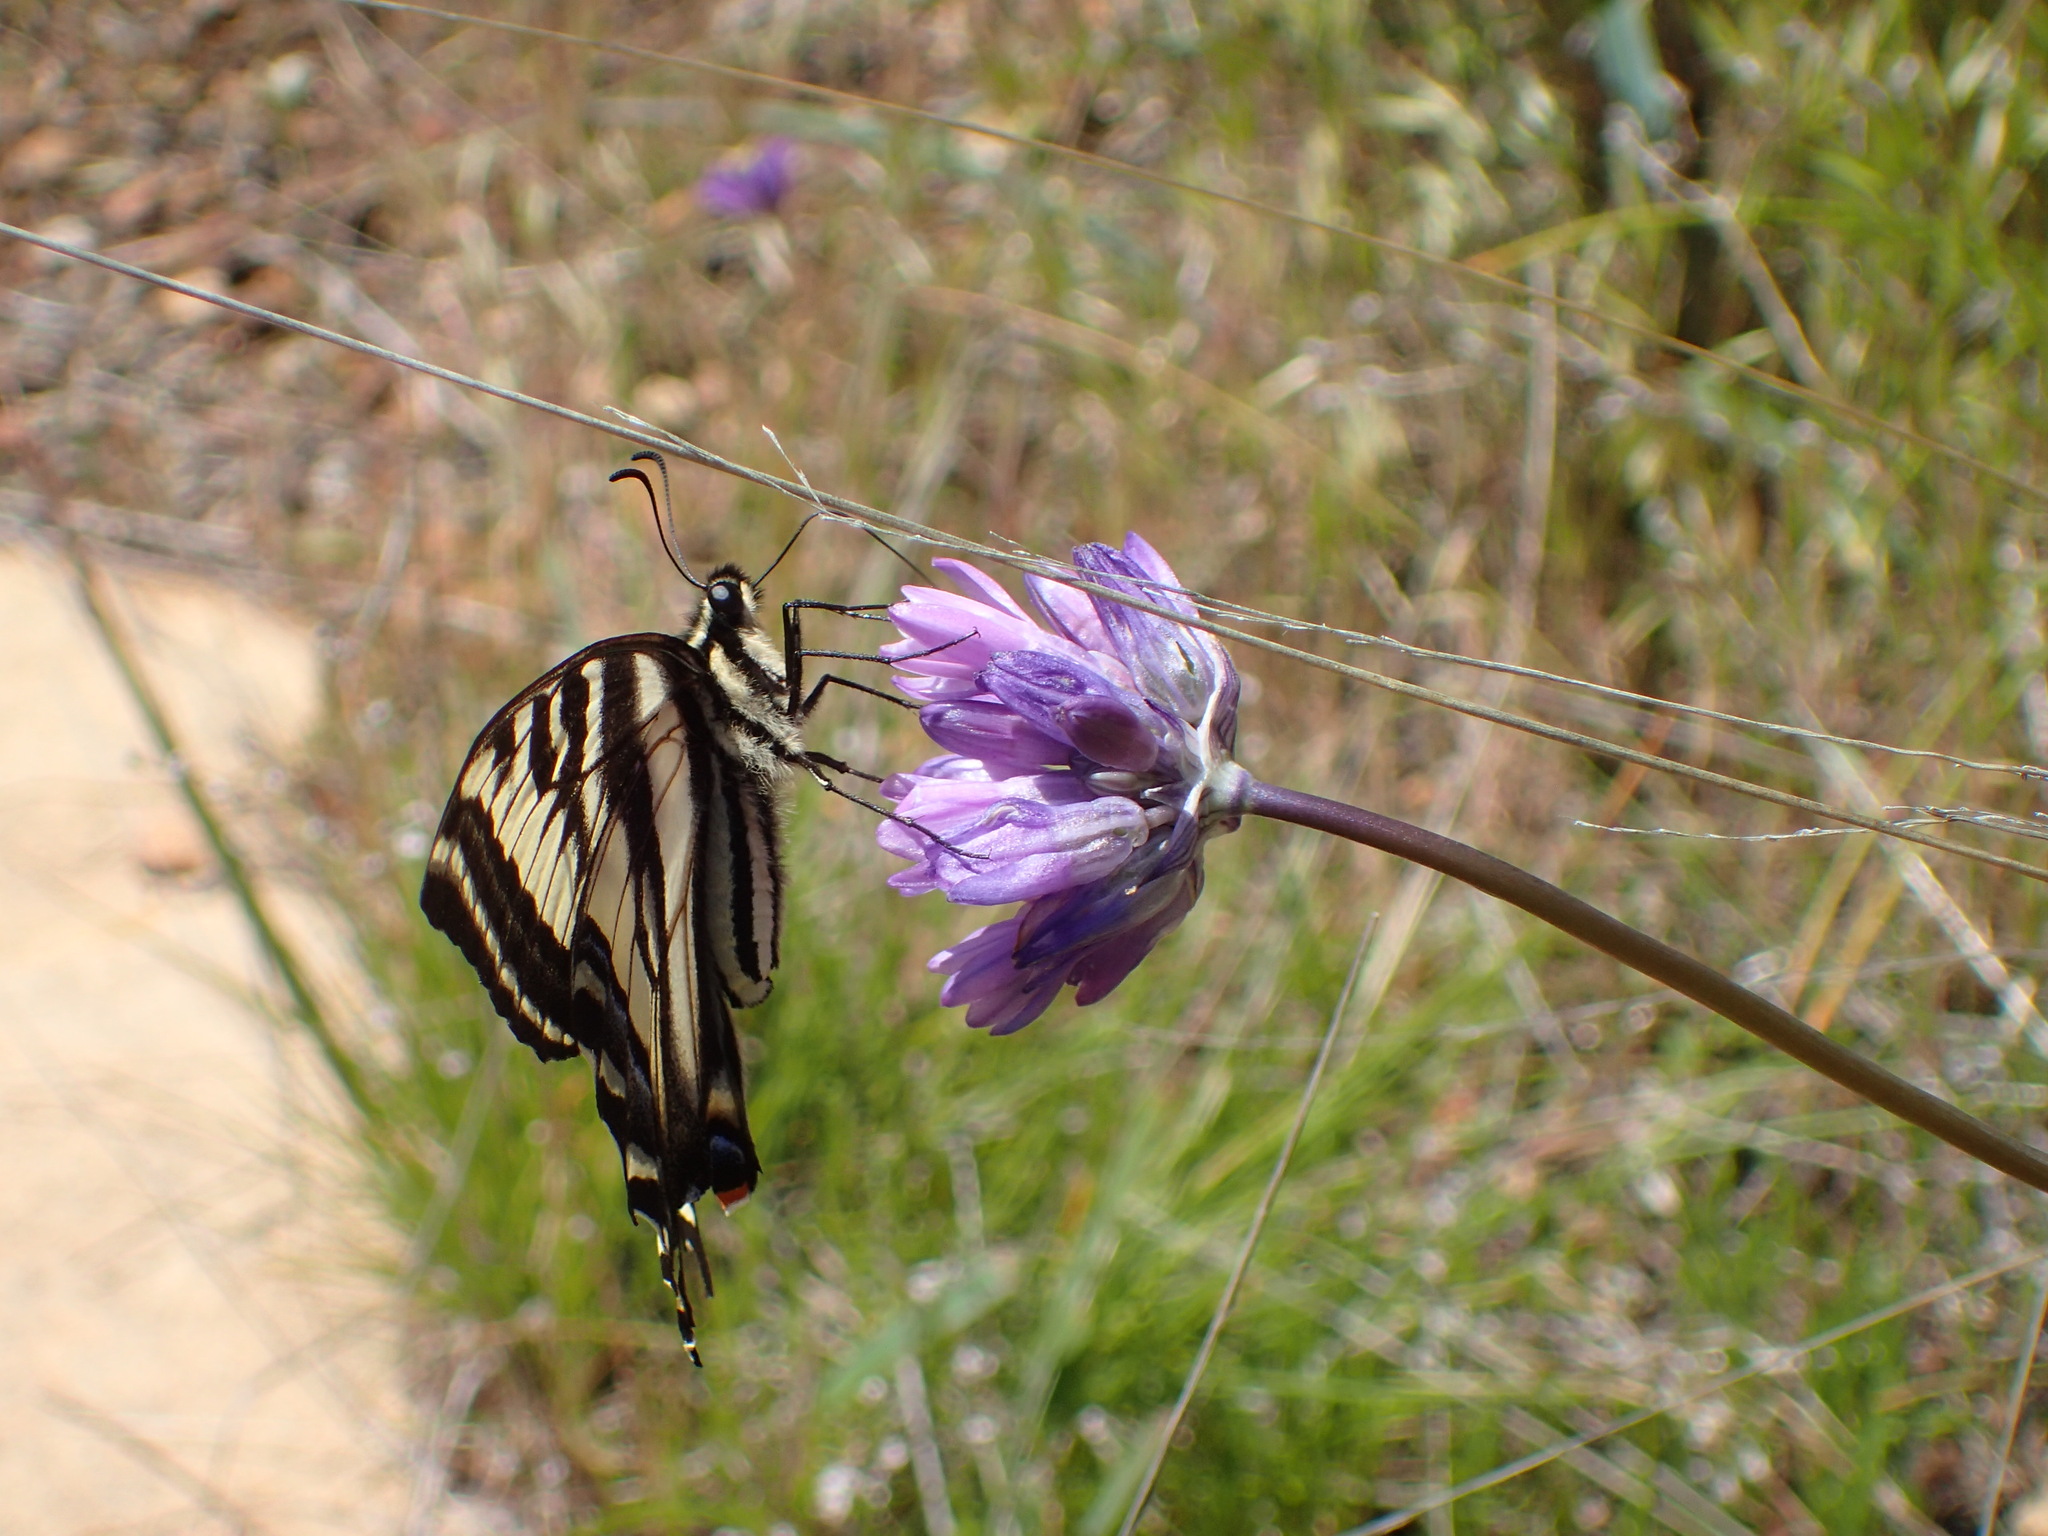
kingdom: Animalia
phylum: Arthropoda
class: Insecta
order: Lepidoptera
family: Papilionidae
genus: Papilio
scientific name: Papilio eurymedon
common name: Pale tiger swallowtail
